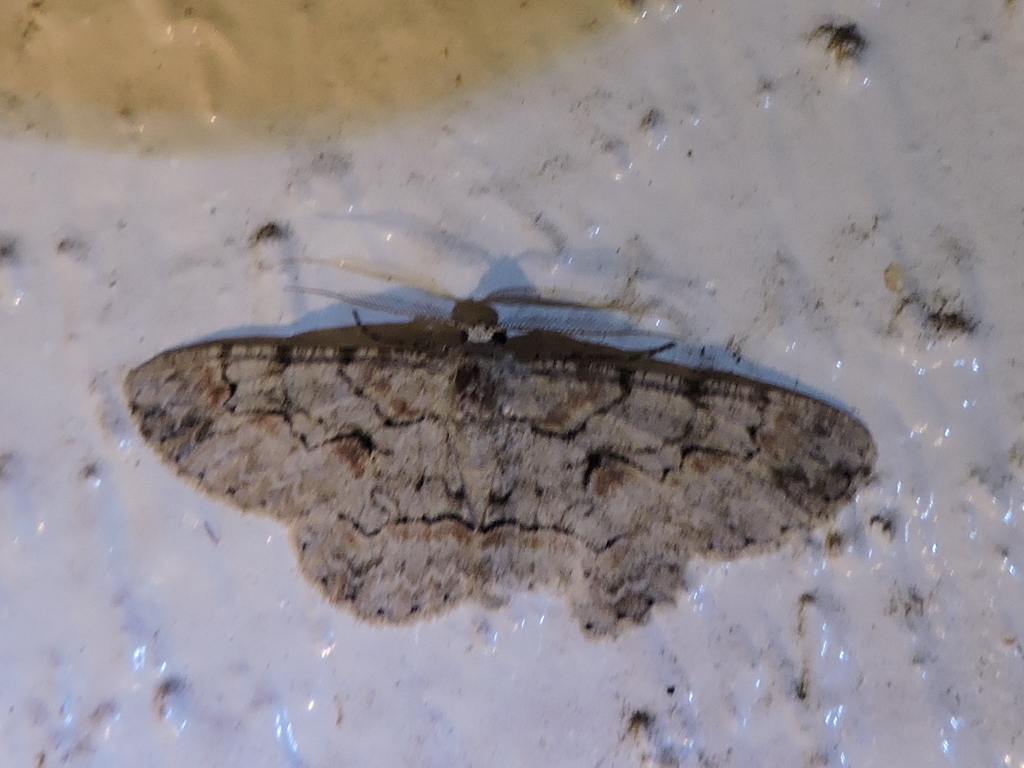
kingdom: Animalia
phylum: Arthropoda
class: Insecta
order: Lepidoptera
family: Geometridae
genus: Iridopsis
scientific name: Iridopsis defectaria
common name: Brown-shaded gray
